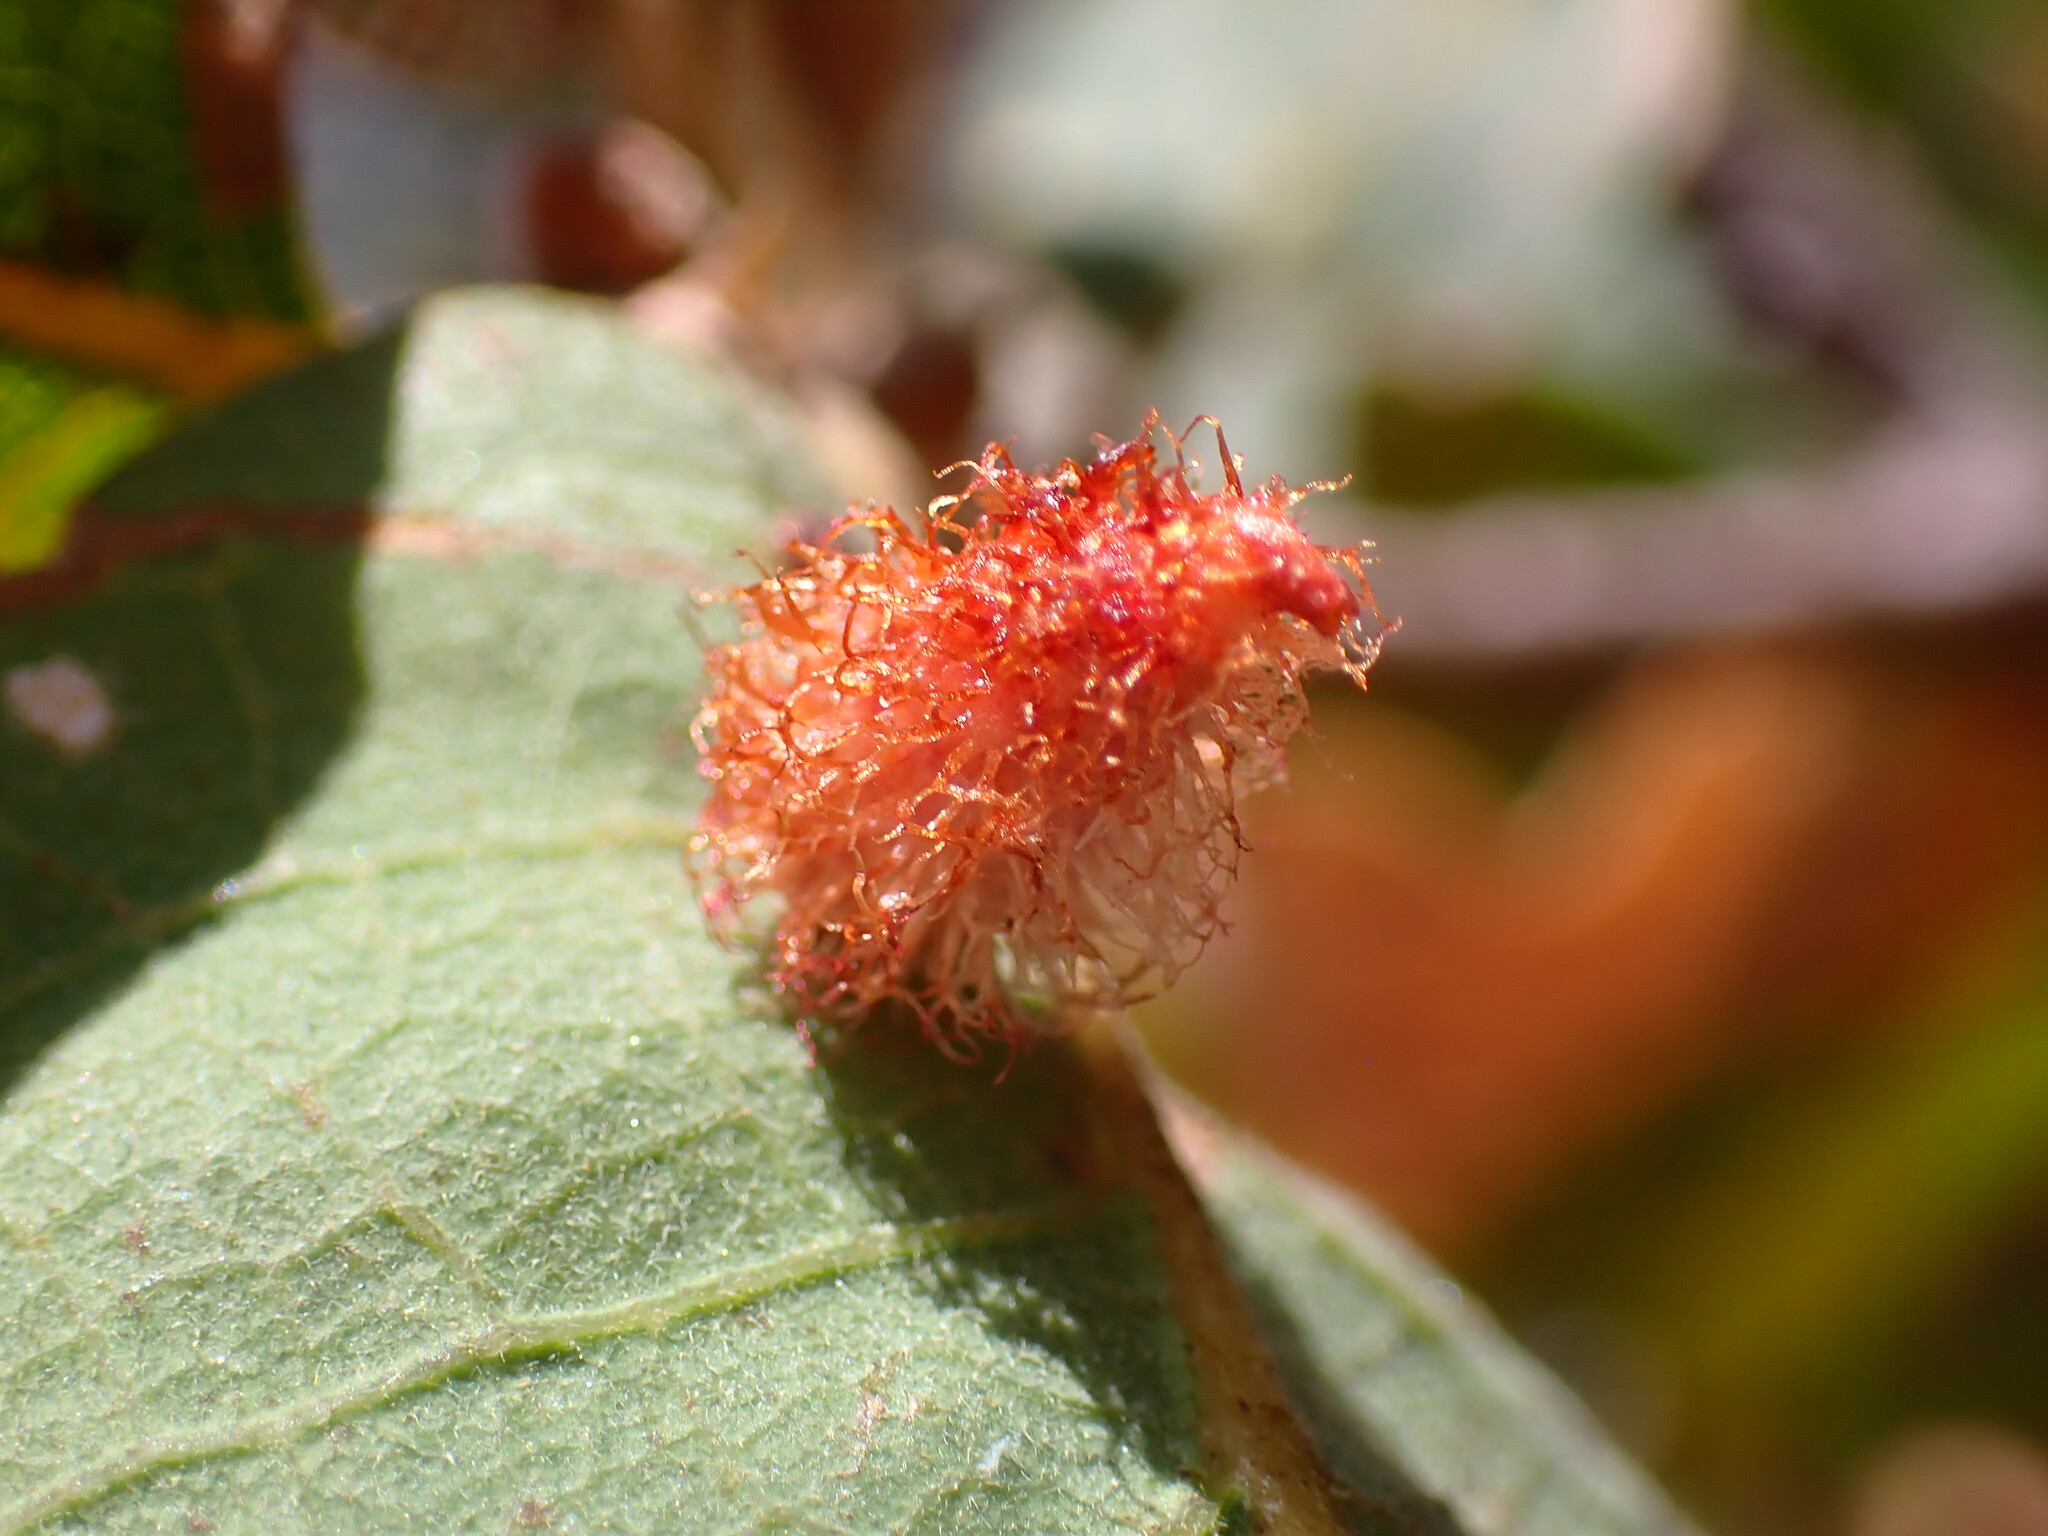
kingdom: Animalia
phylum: Arthropoda
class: Insecta
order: Hymenoptera
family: Cynipidae
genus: Andricus
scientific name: Andricus
